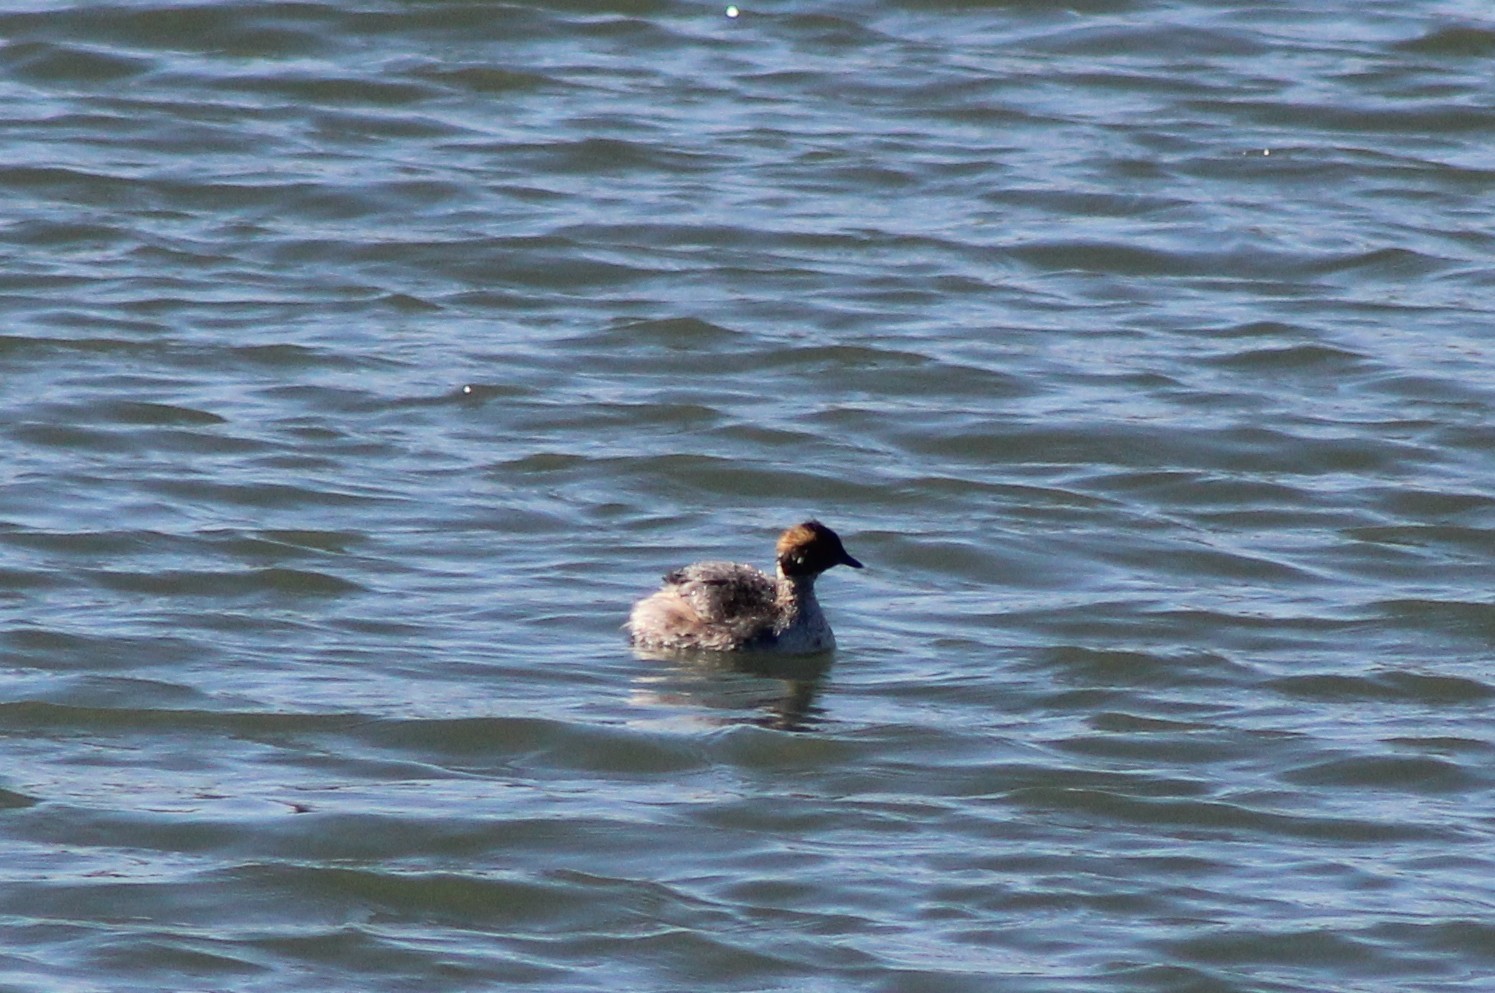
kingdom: Animalia
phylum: Chordata
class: Aves
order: Podicipediformes
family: Podicipedidae
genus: Podiceps
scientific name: Podiceps auritus
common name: Horned grebe
